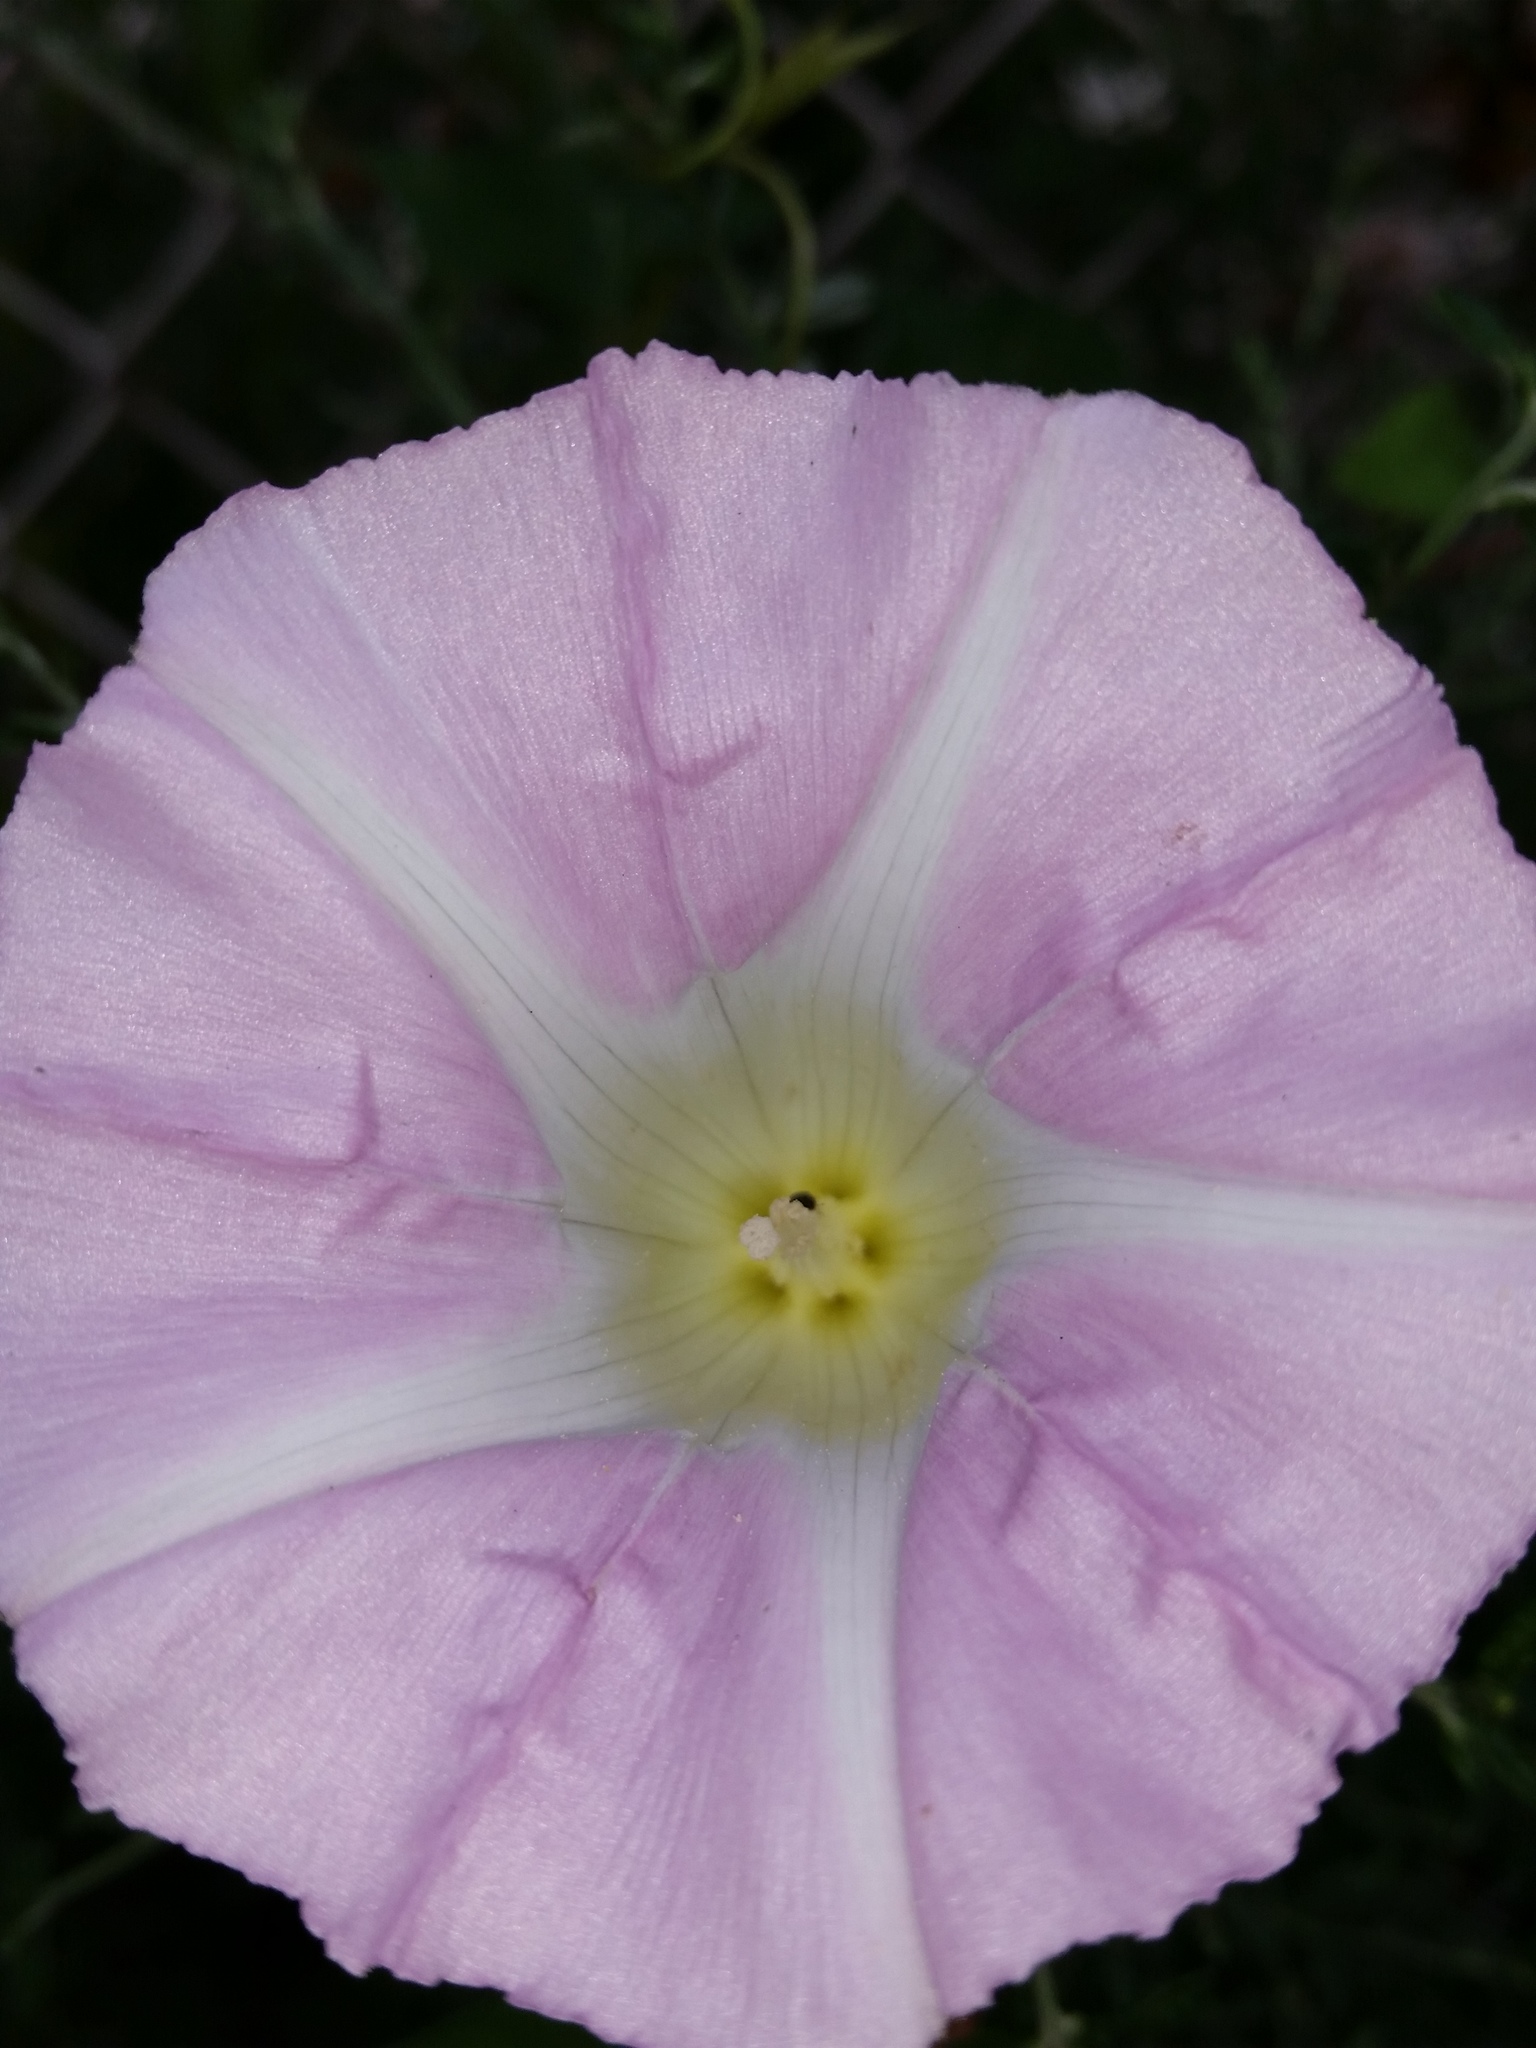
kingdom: Plantae
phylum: Tracheophyta
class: Magnoliopsida
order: Solanales
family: Convolvulaceae
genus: Calystegia
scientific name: Calystegia sepium
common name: Hedge bindweed
